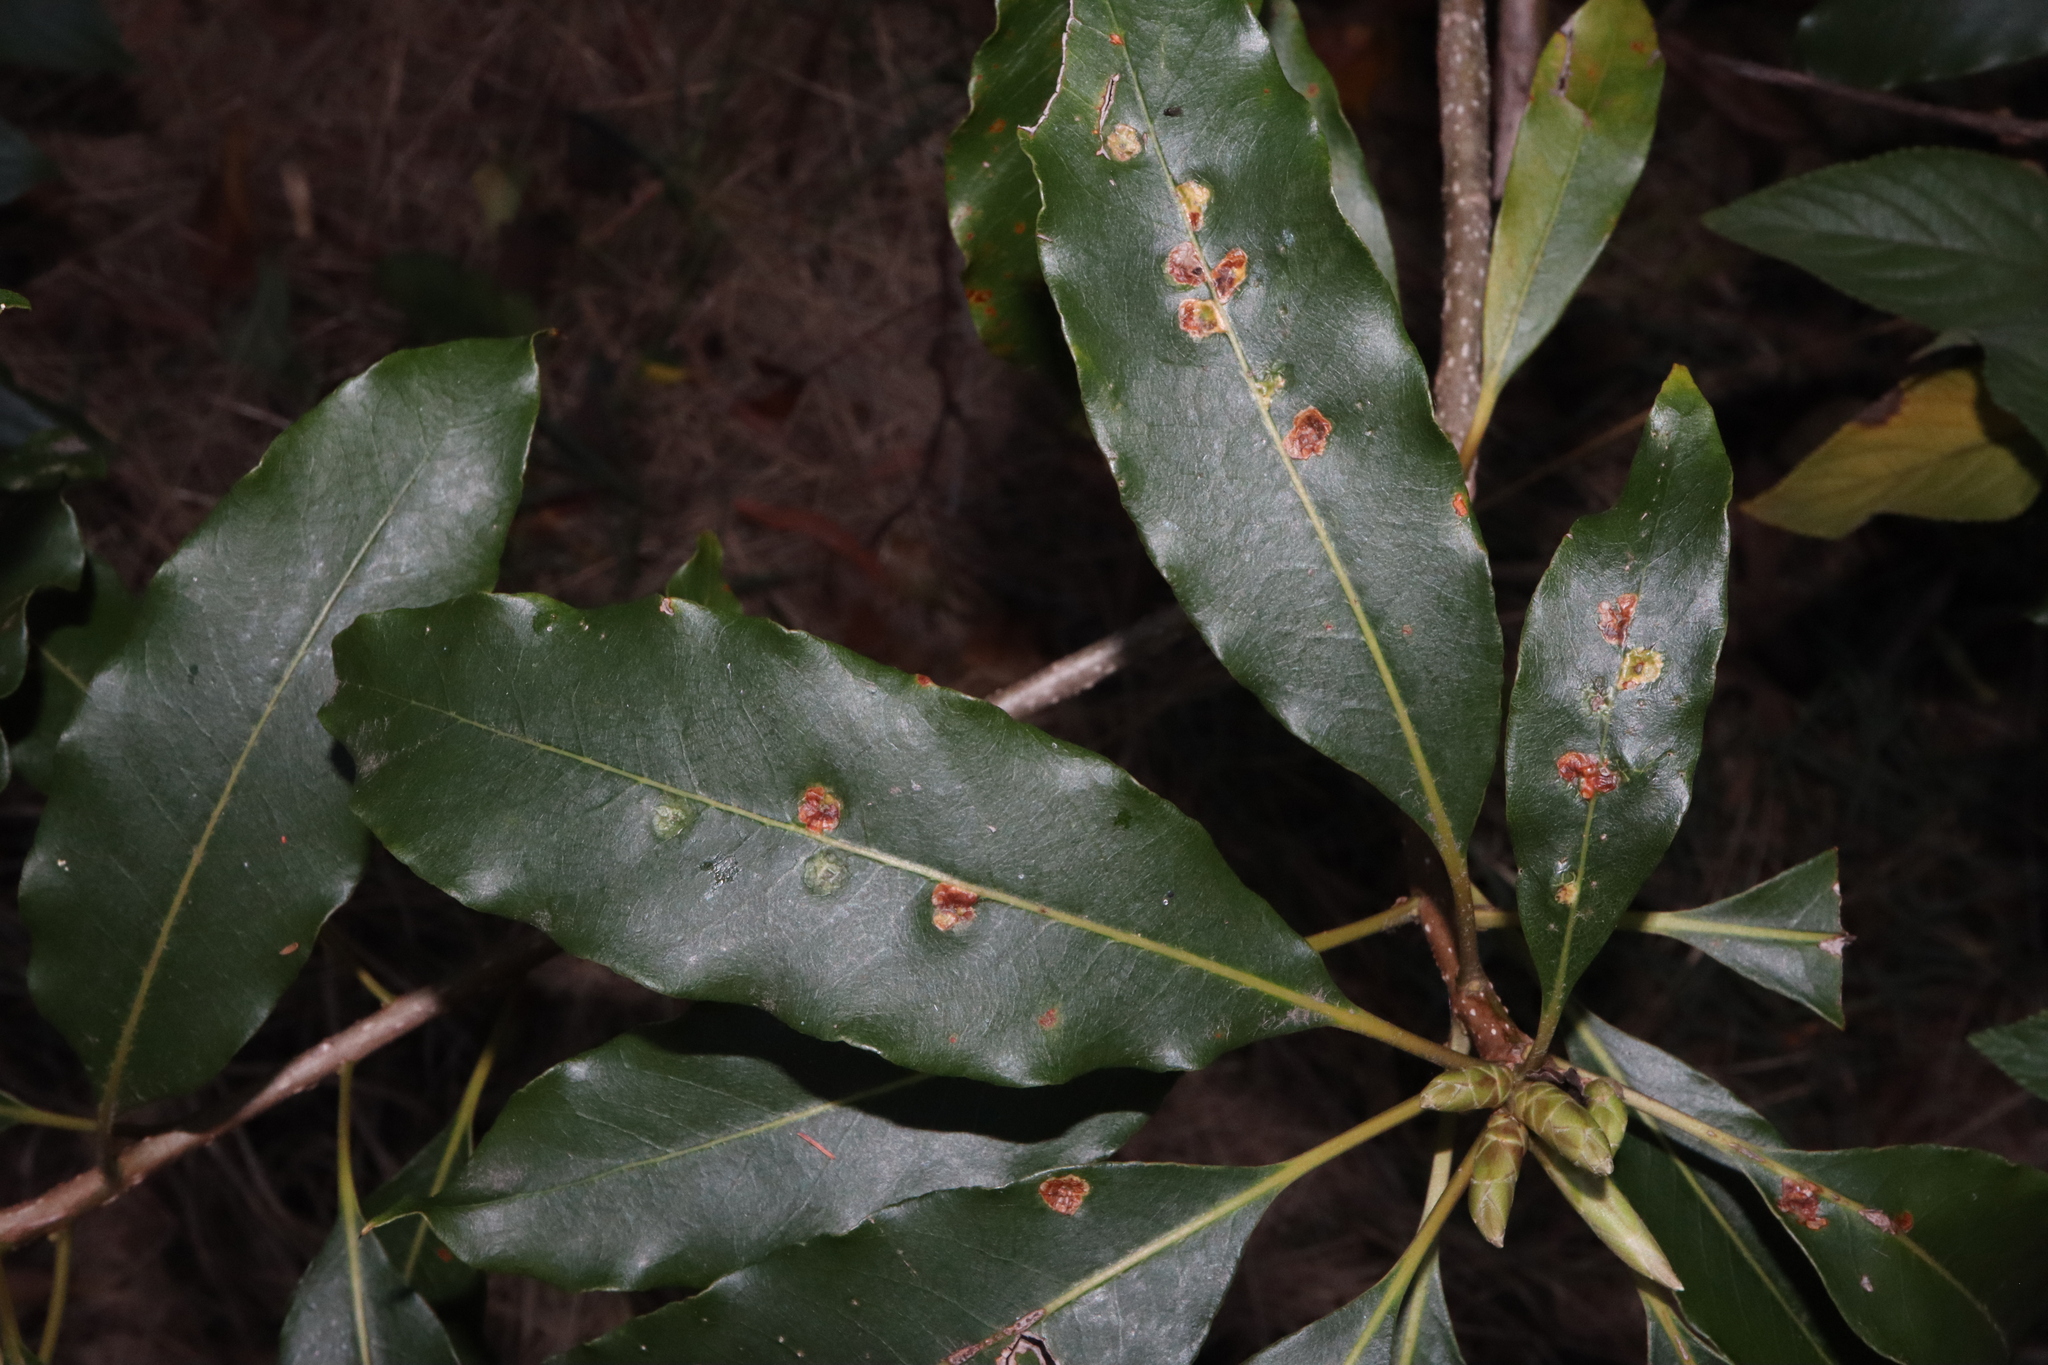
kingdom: Animalia
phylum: Arthropoda
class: Insecta
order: Diptera
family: Agromyzidae
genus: Phytoliriomyza
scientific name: Phytoliriomyza pittosporophylli
